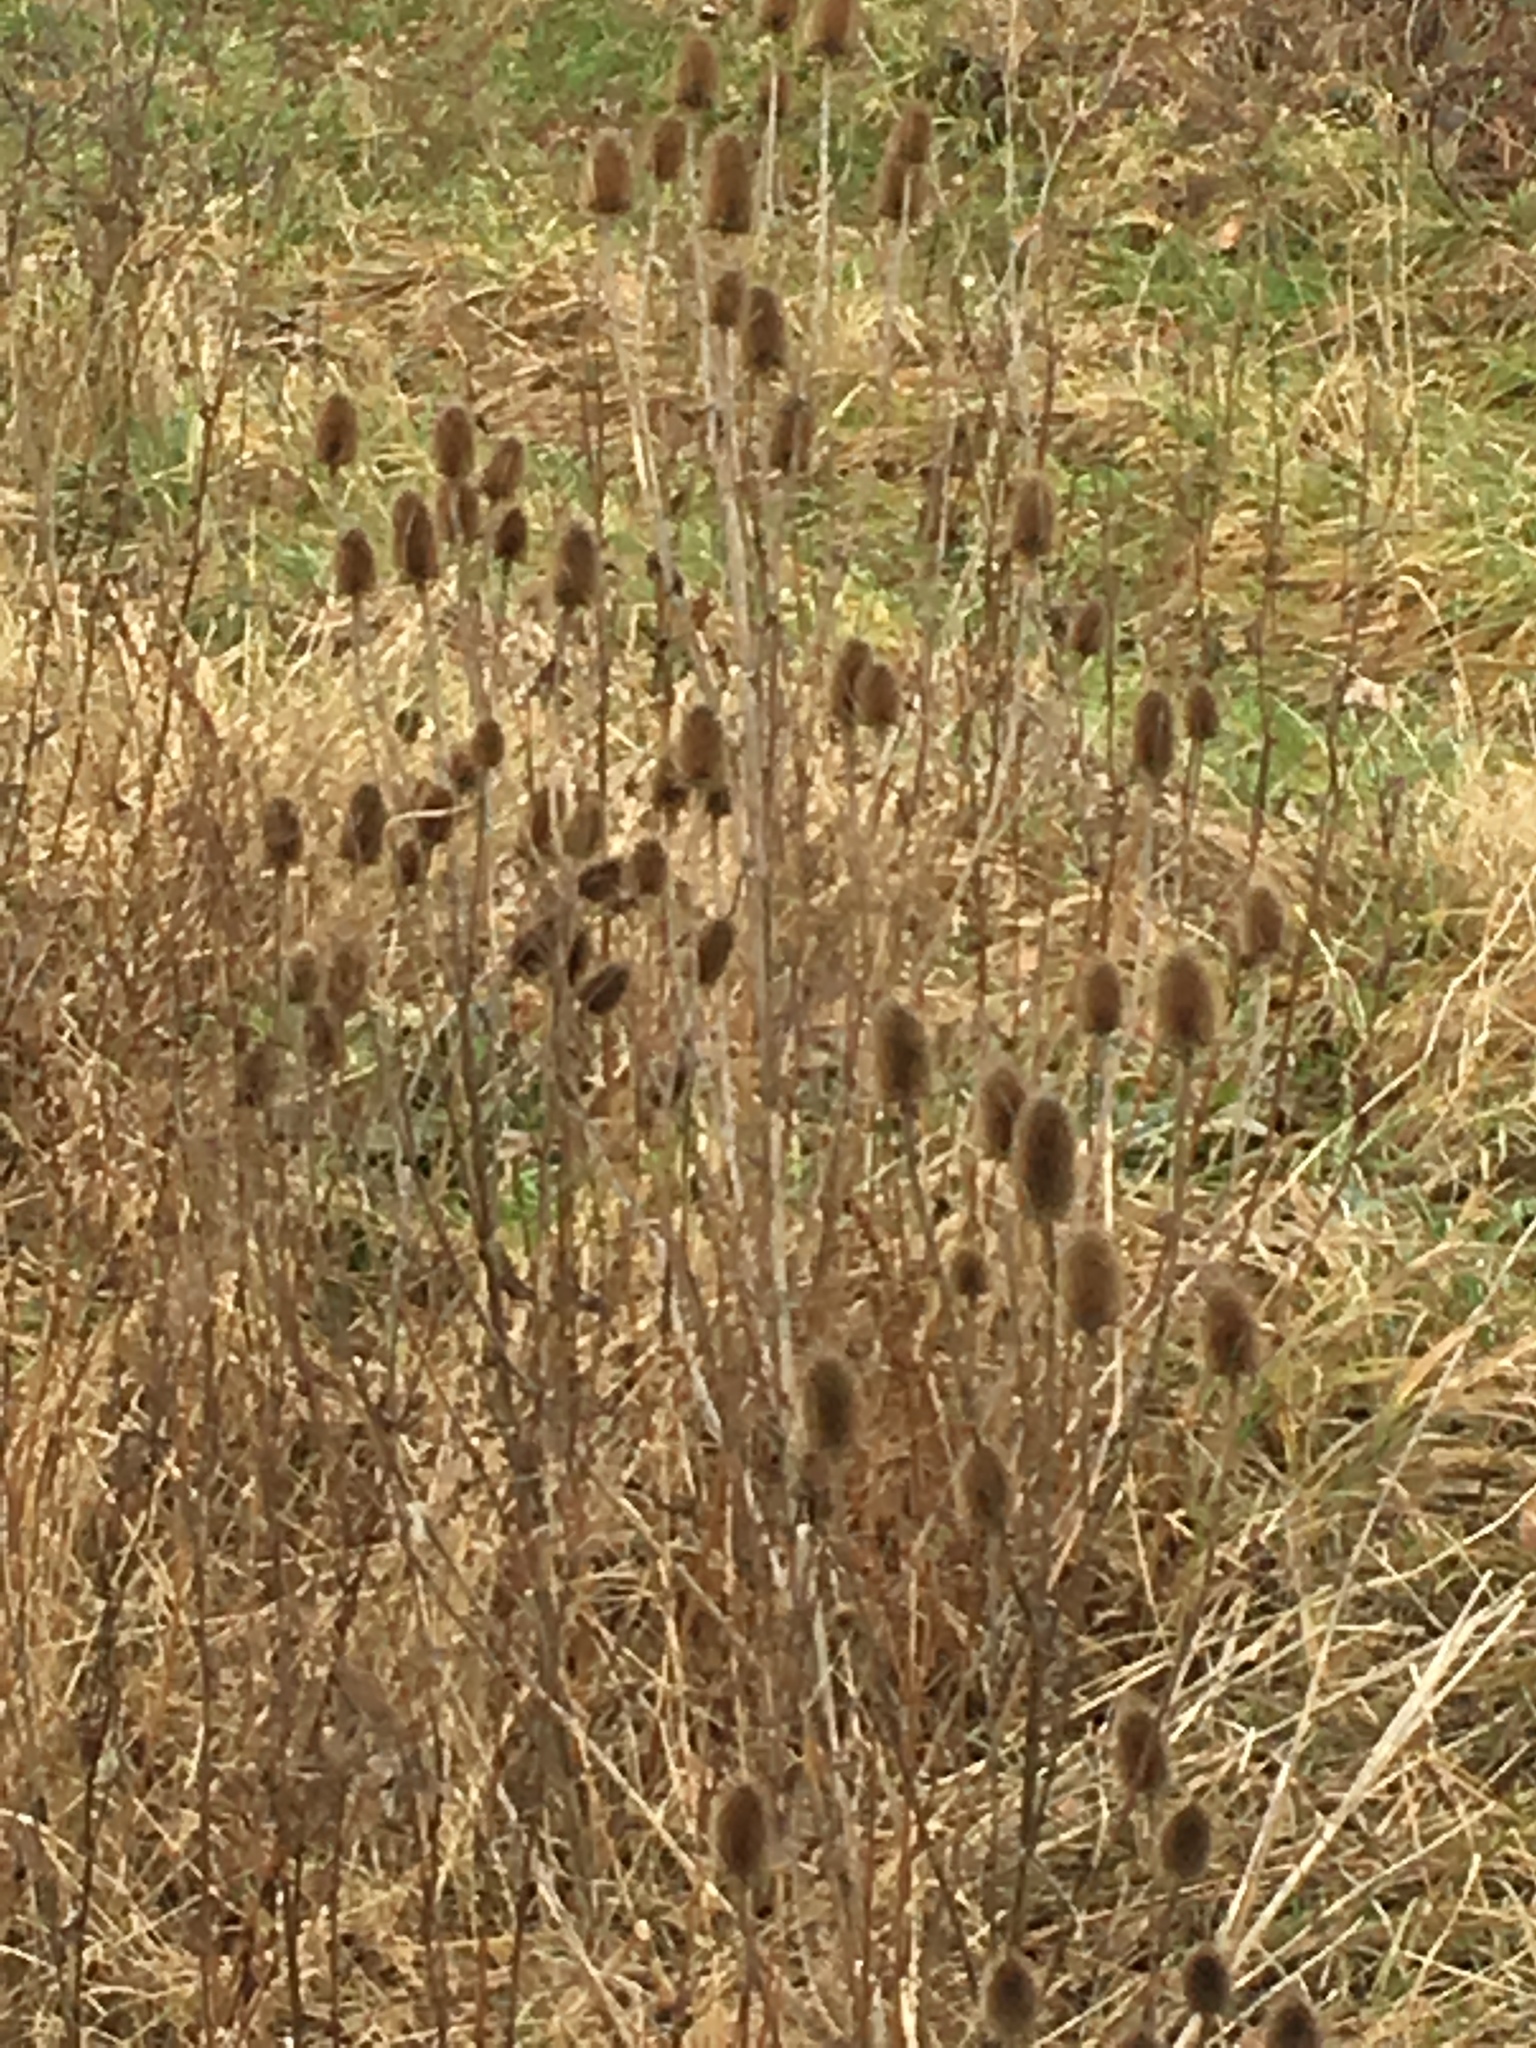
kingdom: Plantae
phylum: Tracheophyta
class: Magnoliopsida
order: Dipsacales
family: Caprifoliaceae
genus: Dipsacus
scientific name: Dipsacus fullonum
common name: Teasel
